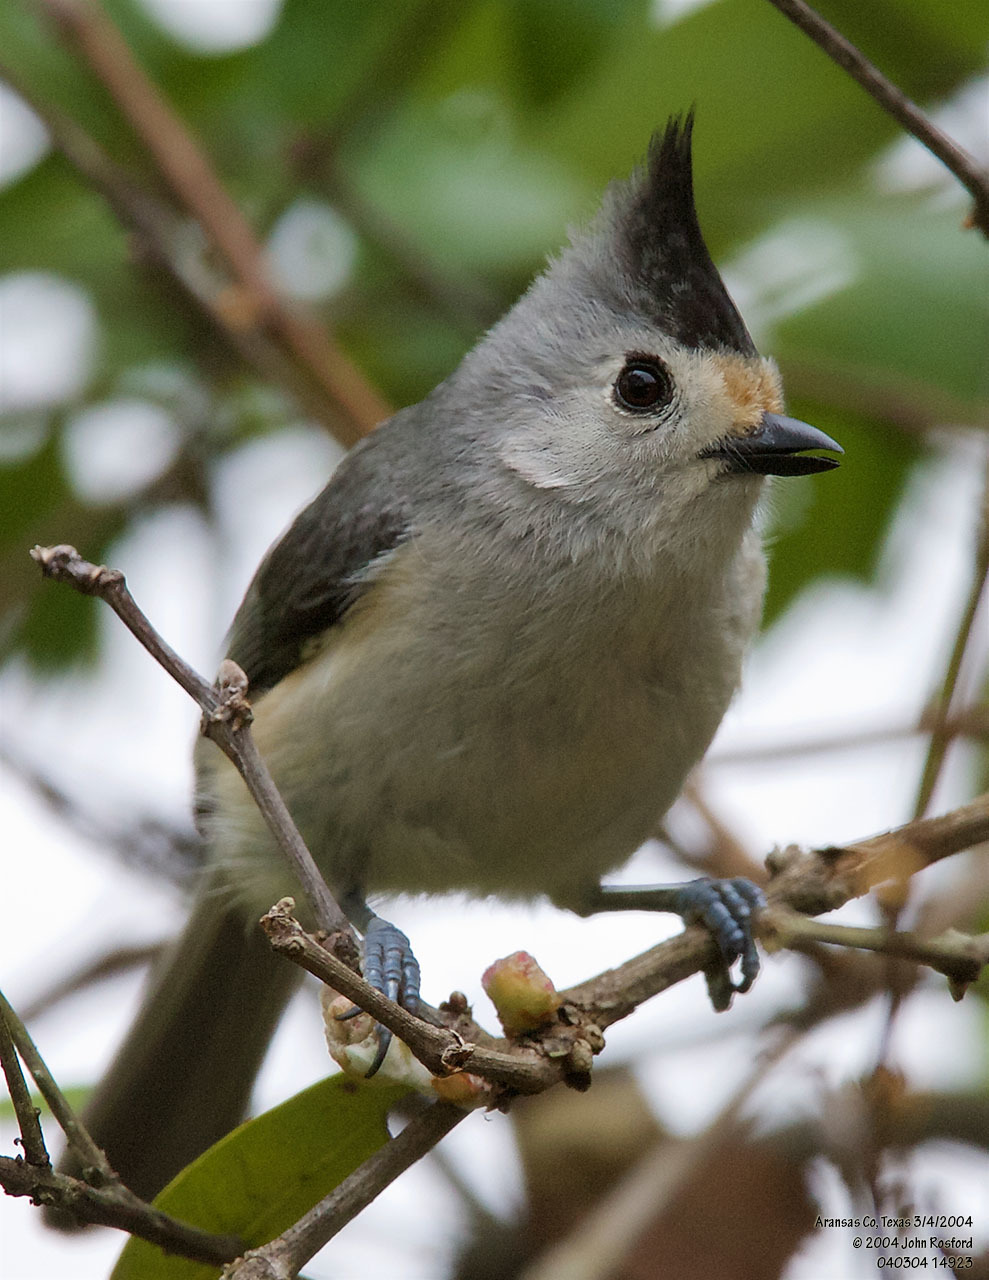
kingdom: Animalia
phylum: Chordata
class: Aves
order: Passeriformes
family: Paridae
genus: Baeolophus
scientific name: Baeolophus atricristatus
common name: Black-crested titmouse
